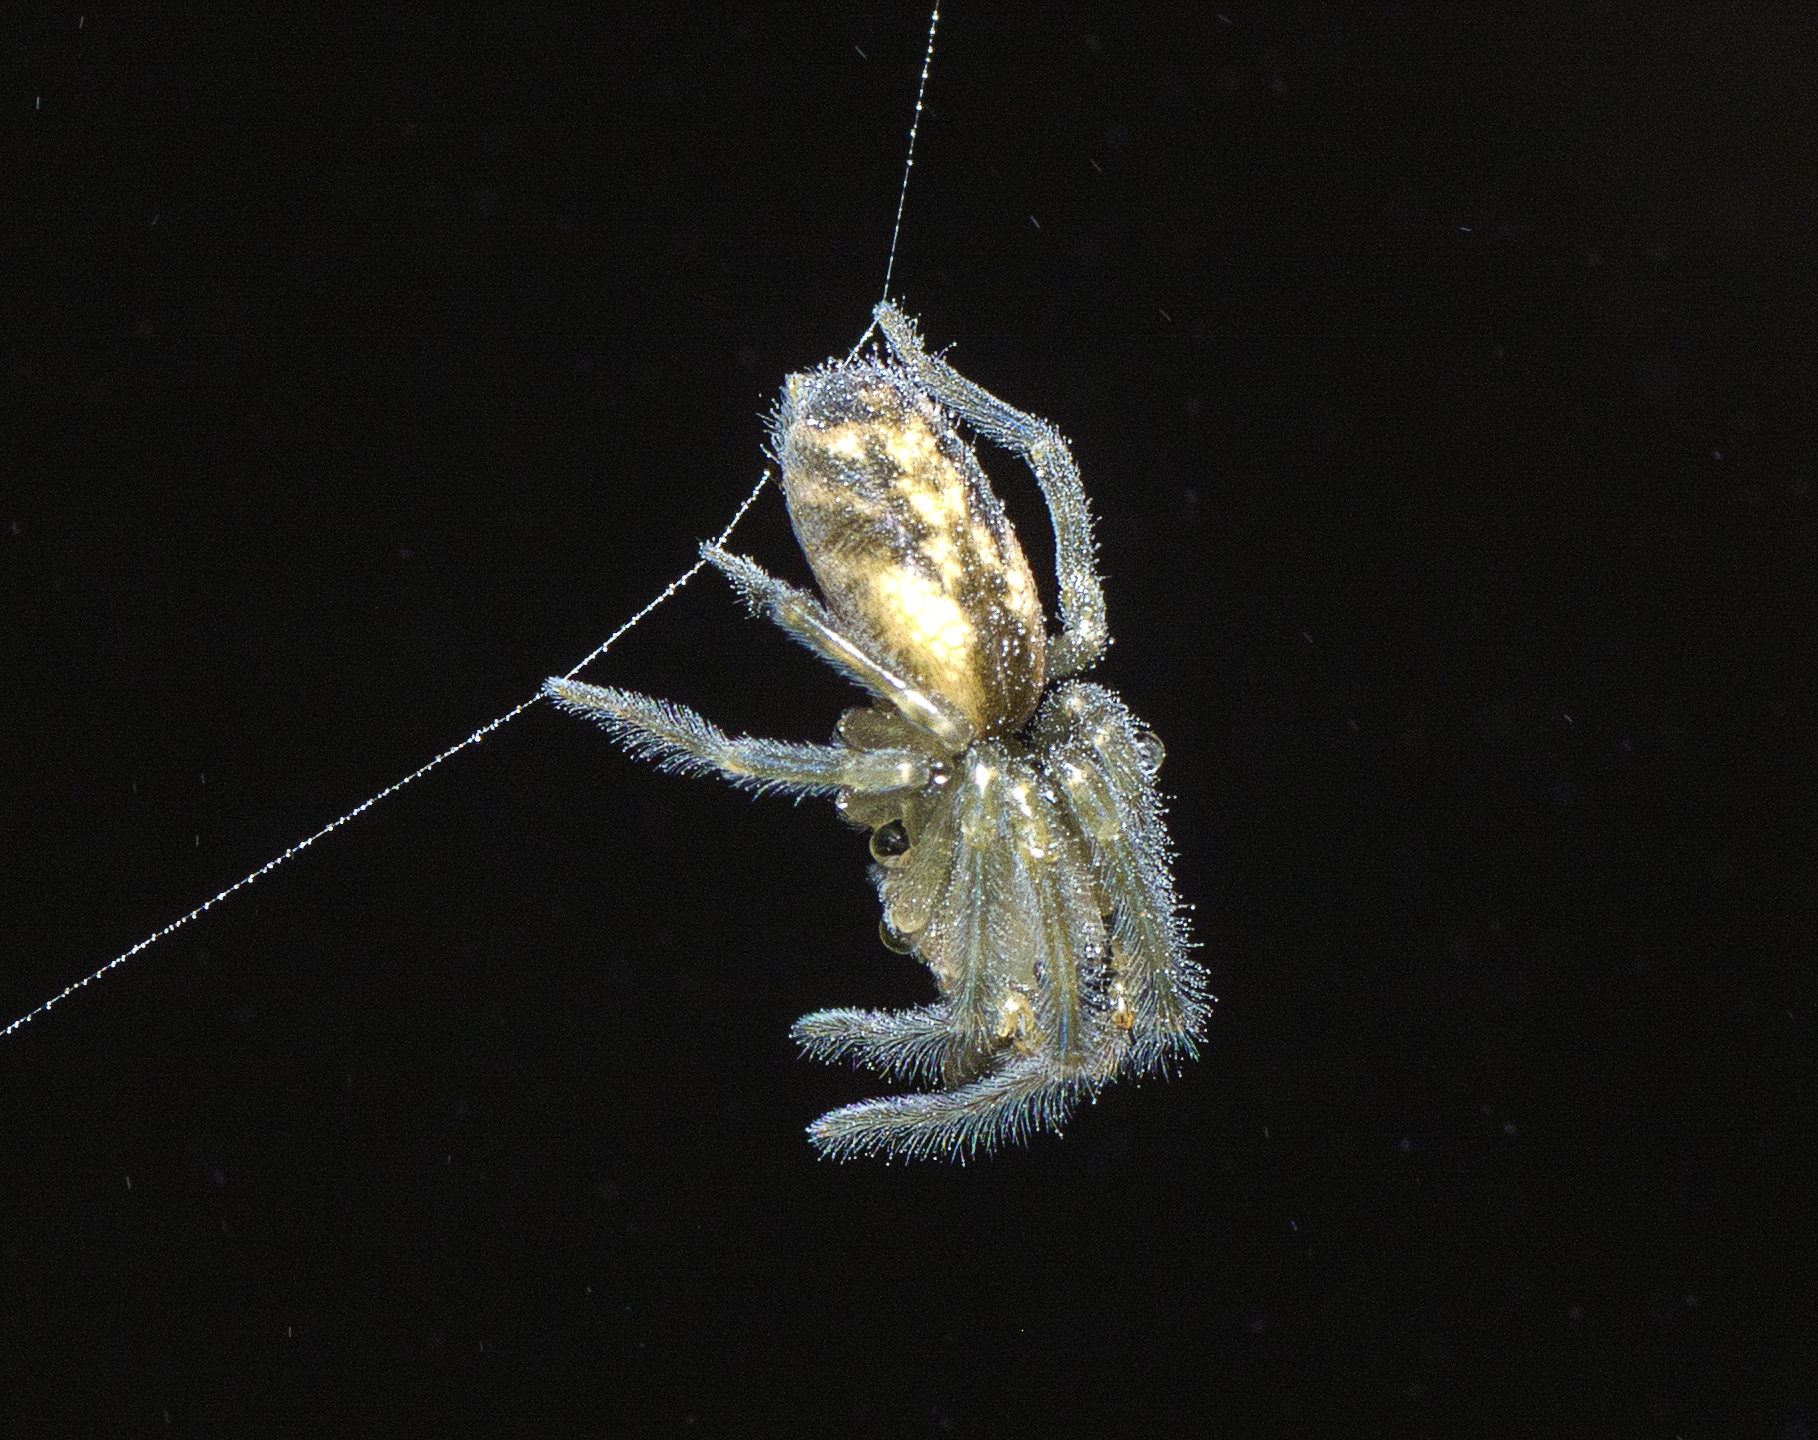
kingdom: Animalia
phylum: Arthropoda
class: Arachnida
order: Araneae
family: Desidae
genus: Paramatachia
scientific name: Paramatachia decorata
